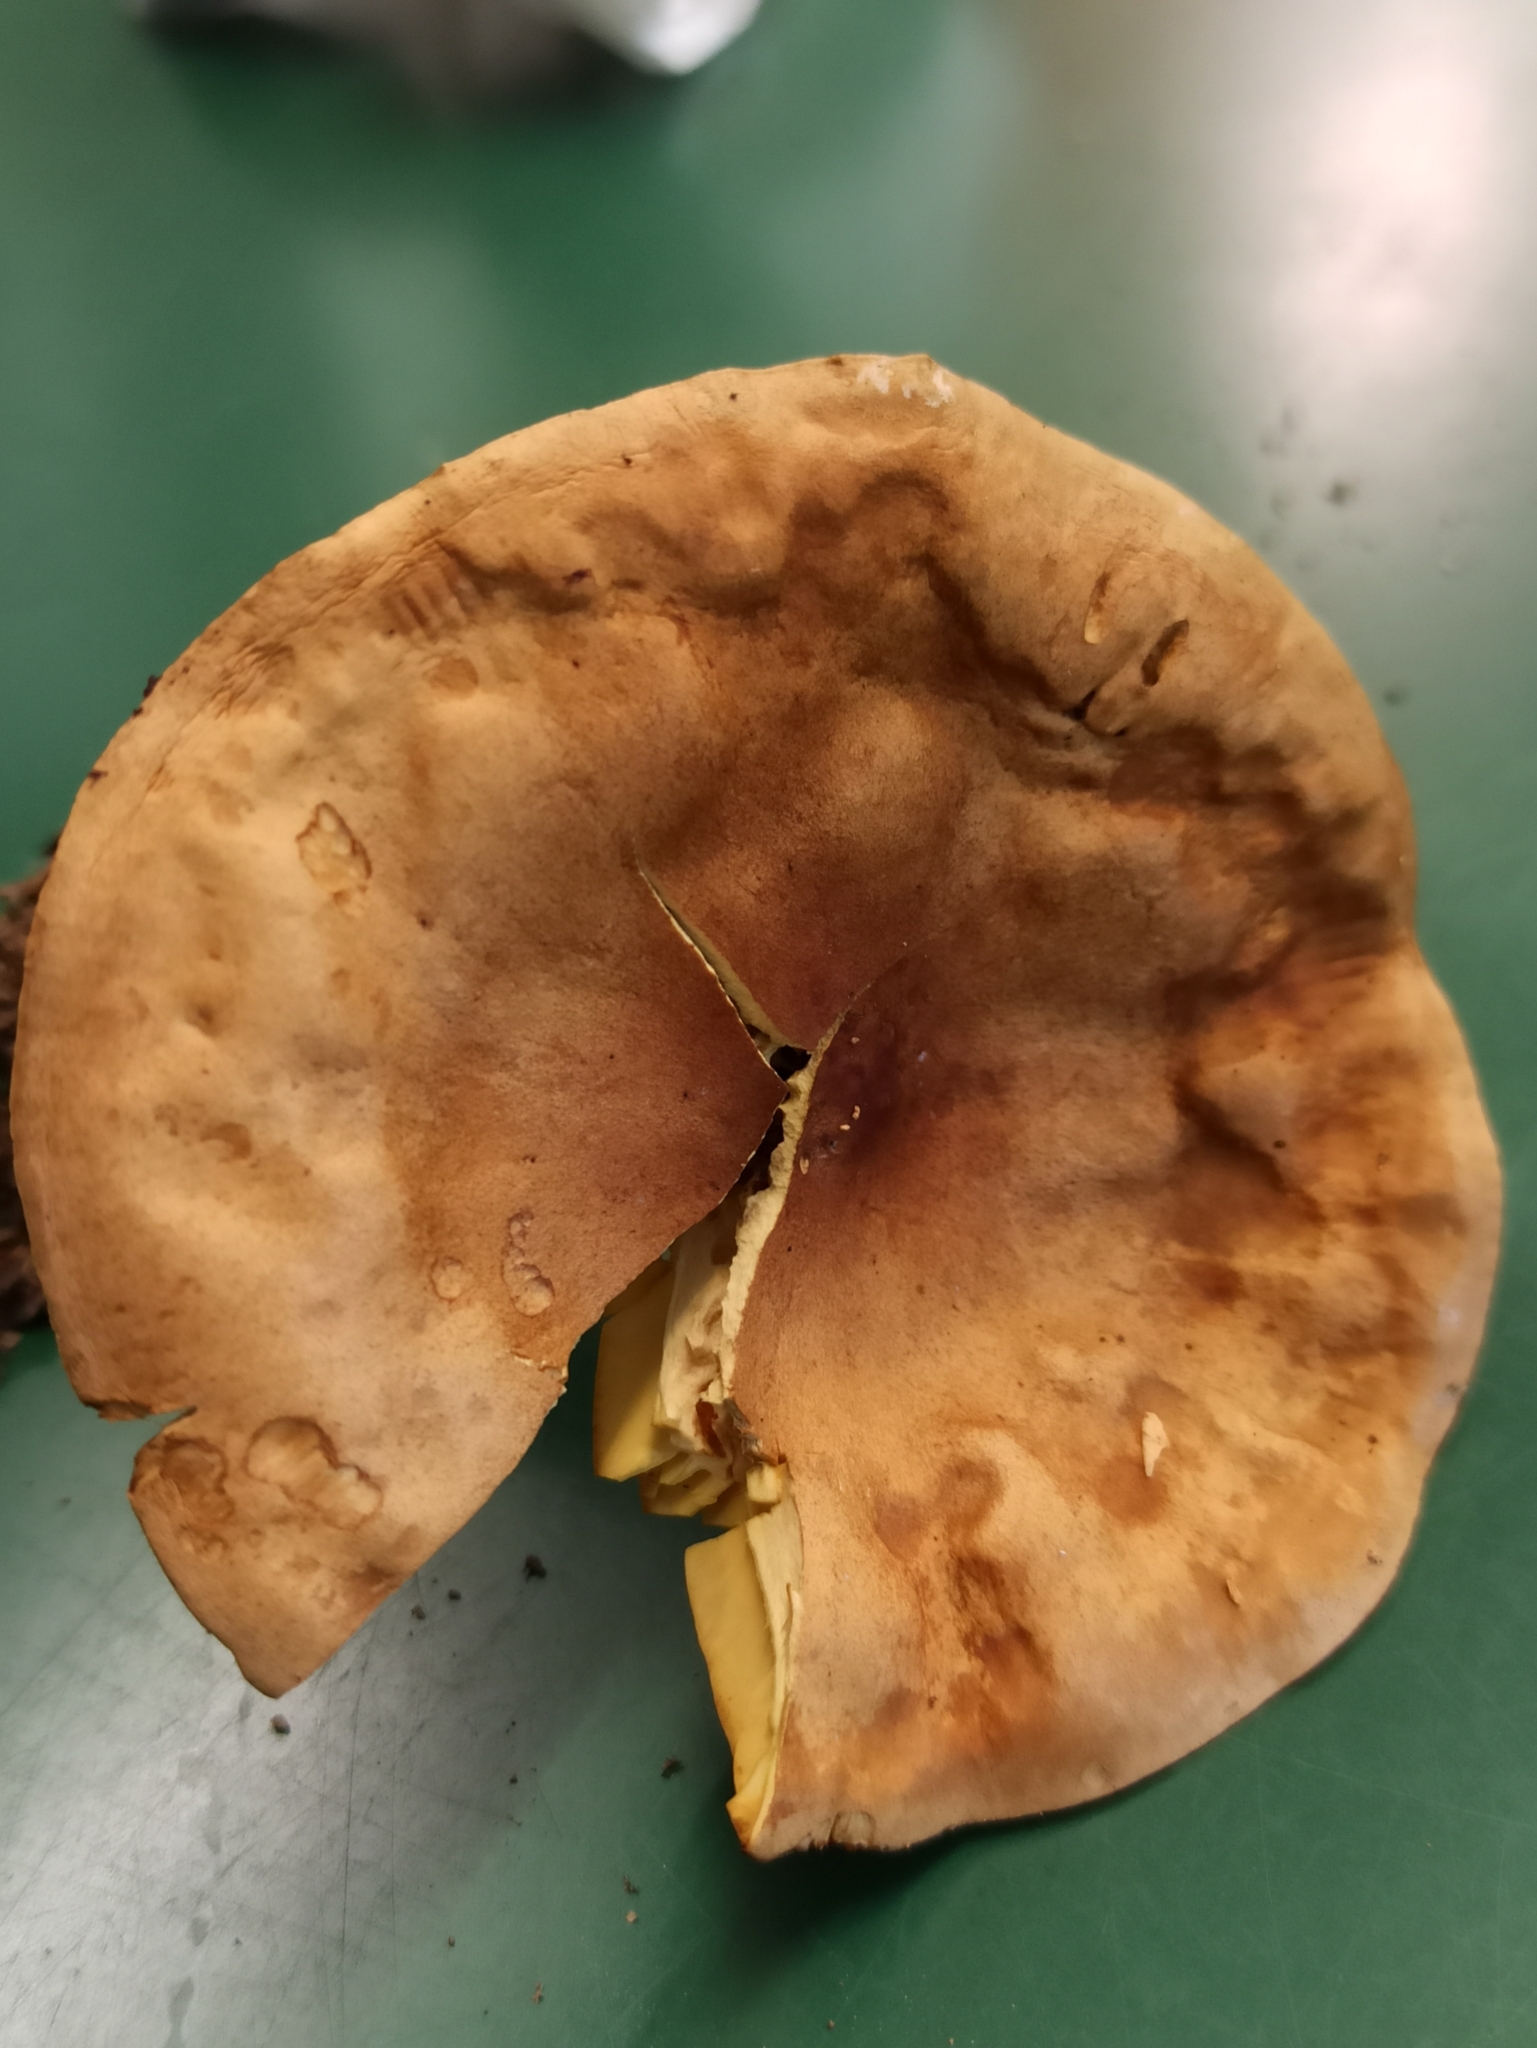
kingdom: Fungi
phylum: Basidiomycota
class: Agaricomycetes
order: Agaricales
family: Tricholomataceae
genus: Tricholoma
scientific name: Tricholoma sulphureum
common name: Stinky knight
